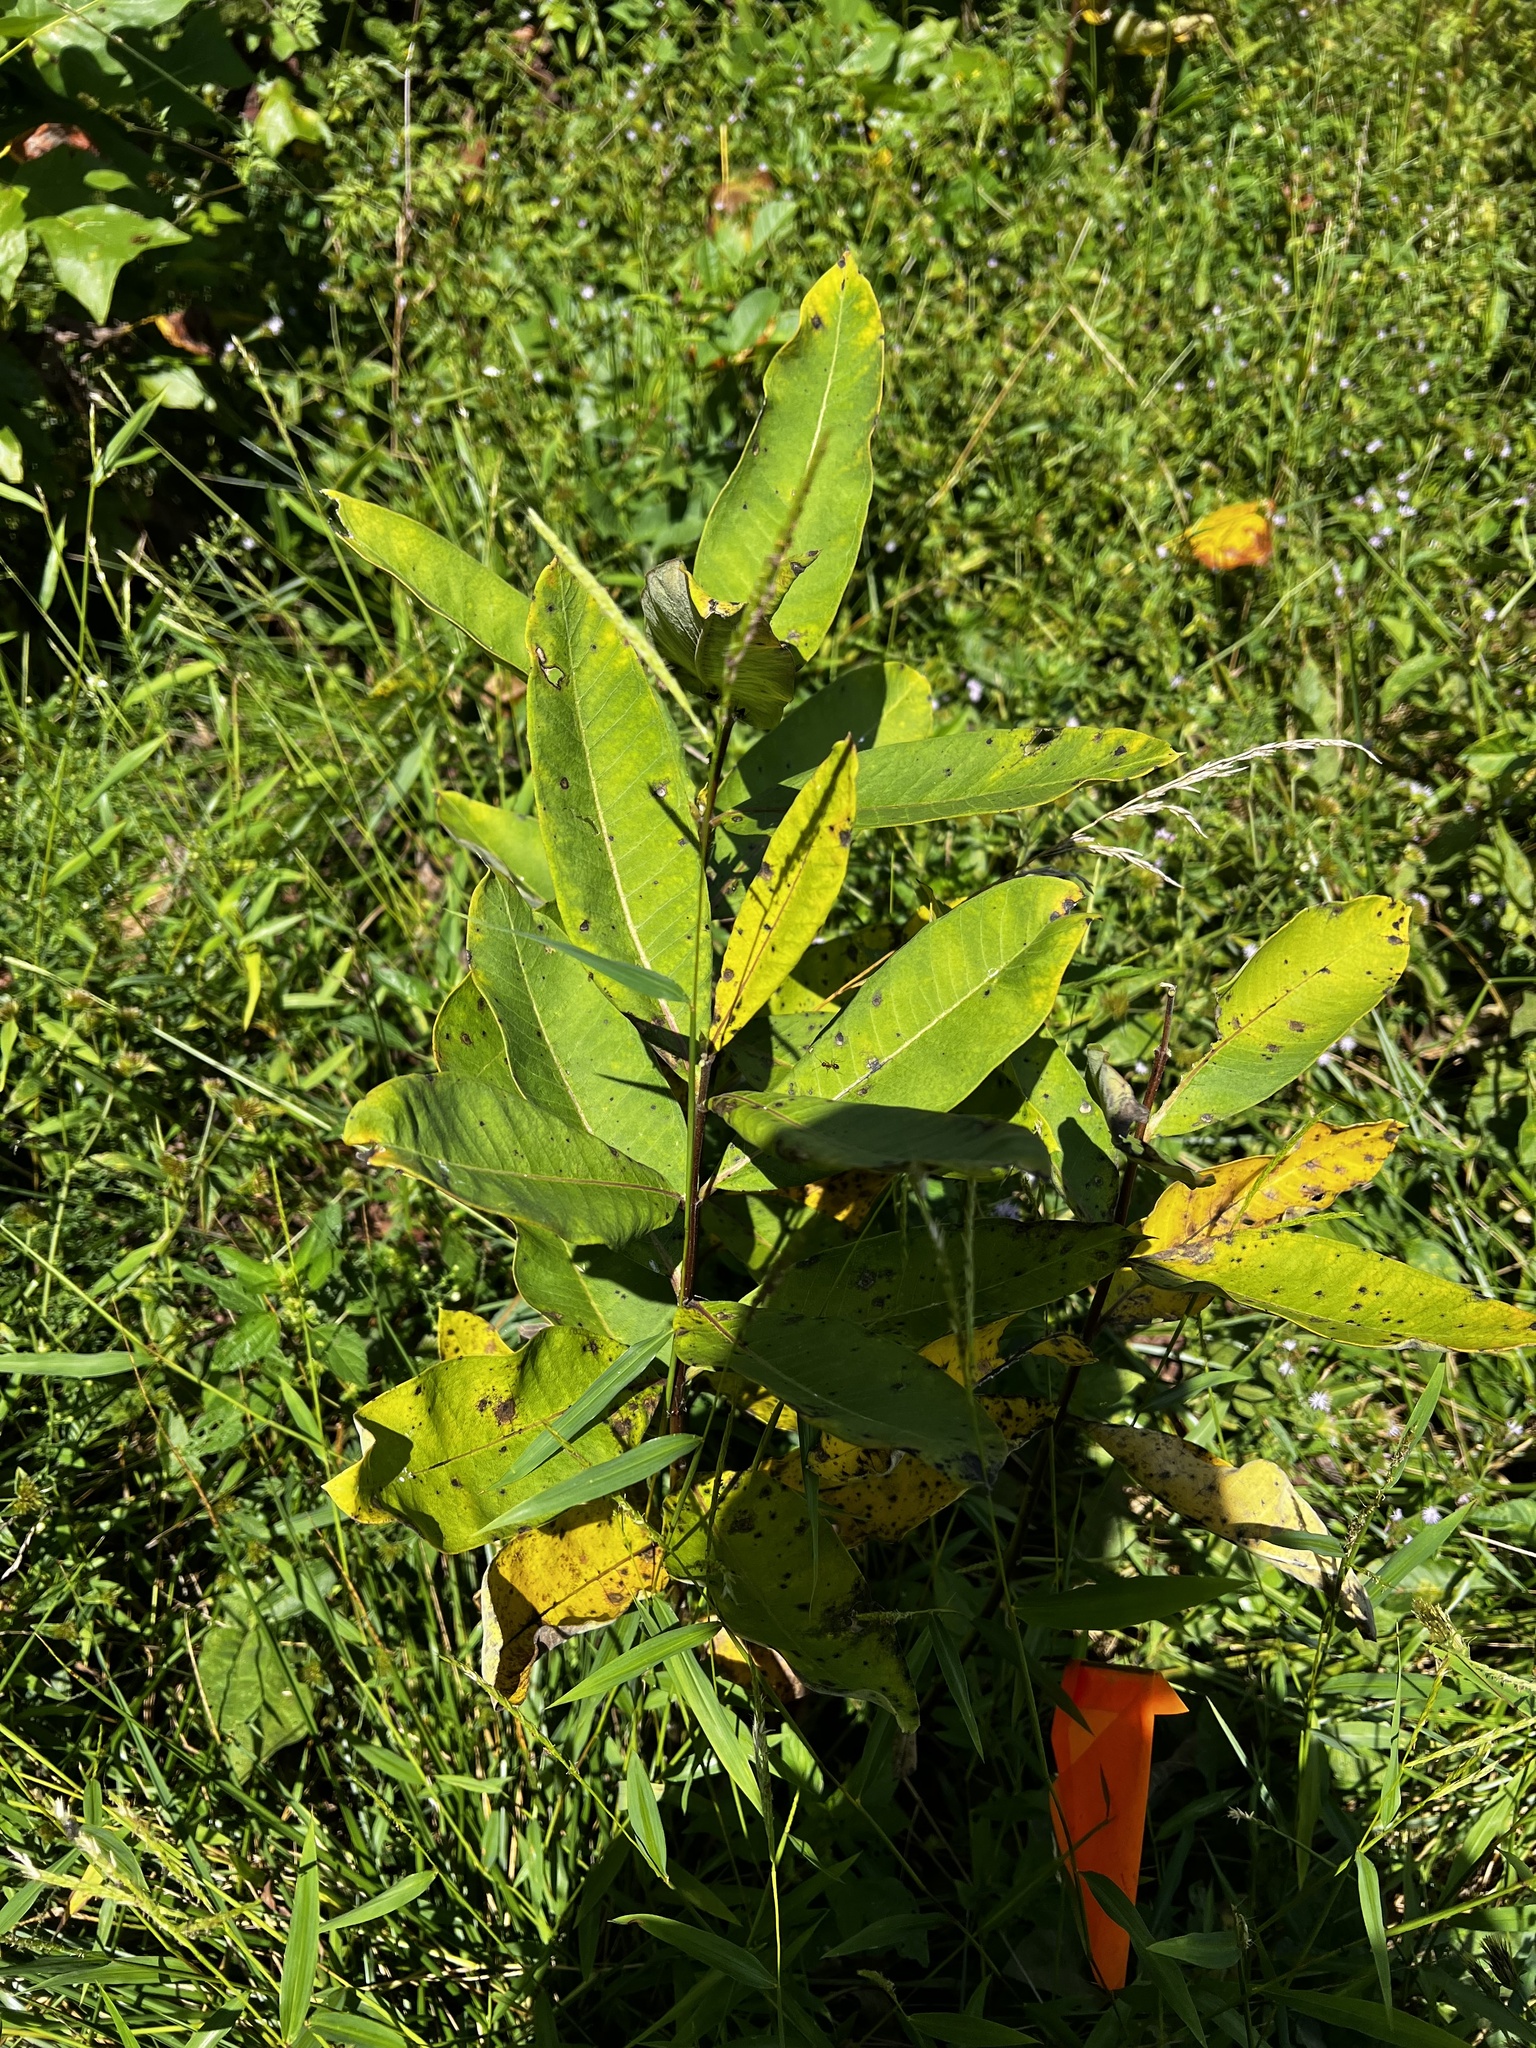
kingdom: Plantae
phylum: Tracheophyta
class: Magnoliopsida
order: Gentianales
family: Apocynaceae
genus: Asclepias
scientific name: Asclepias syriaca
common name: Common milkweed
